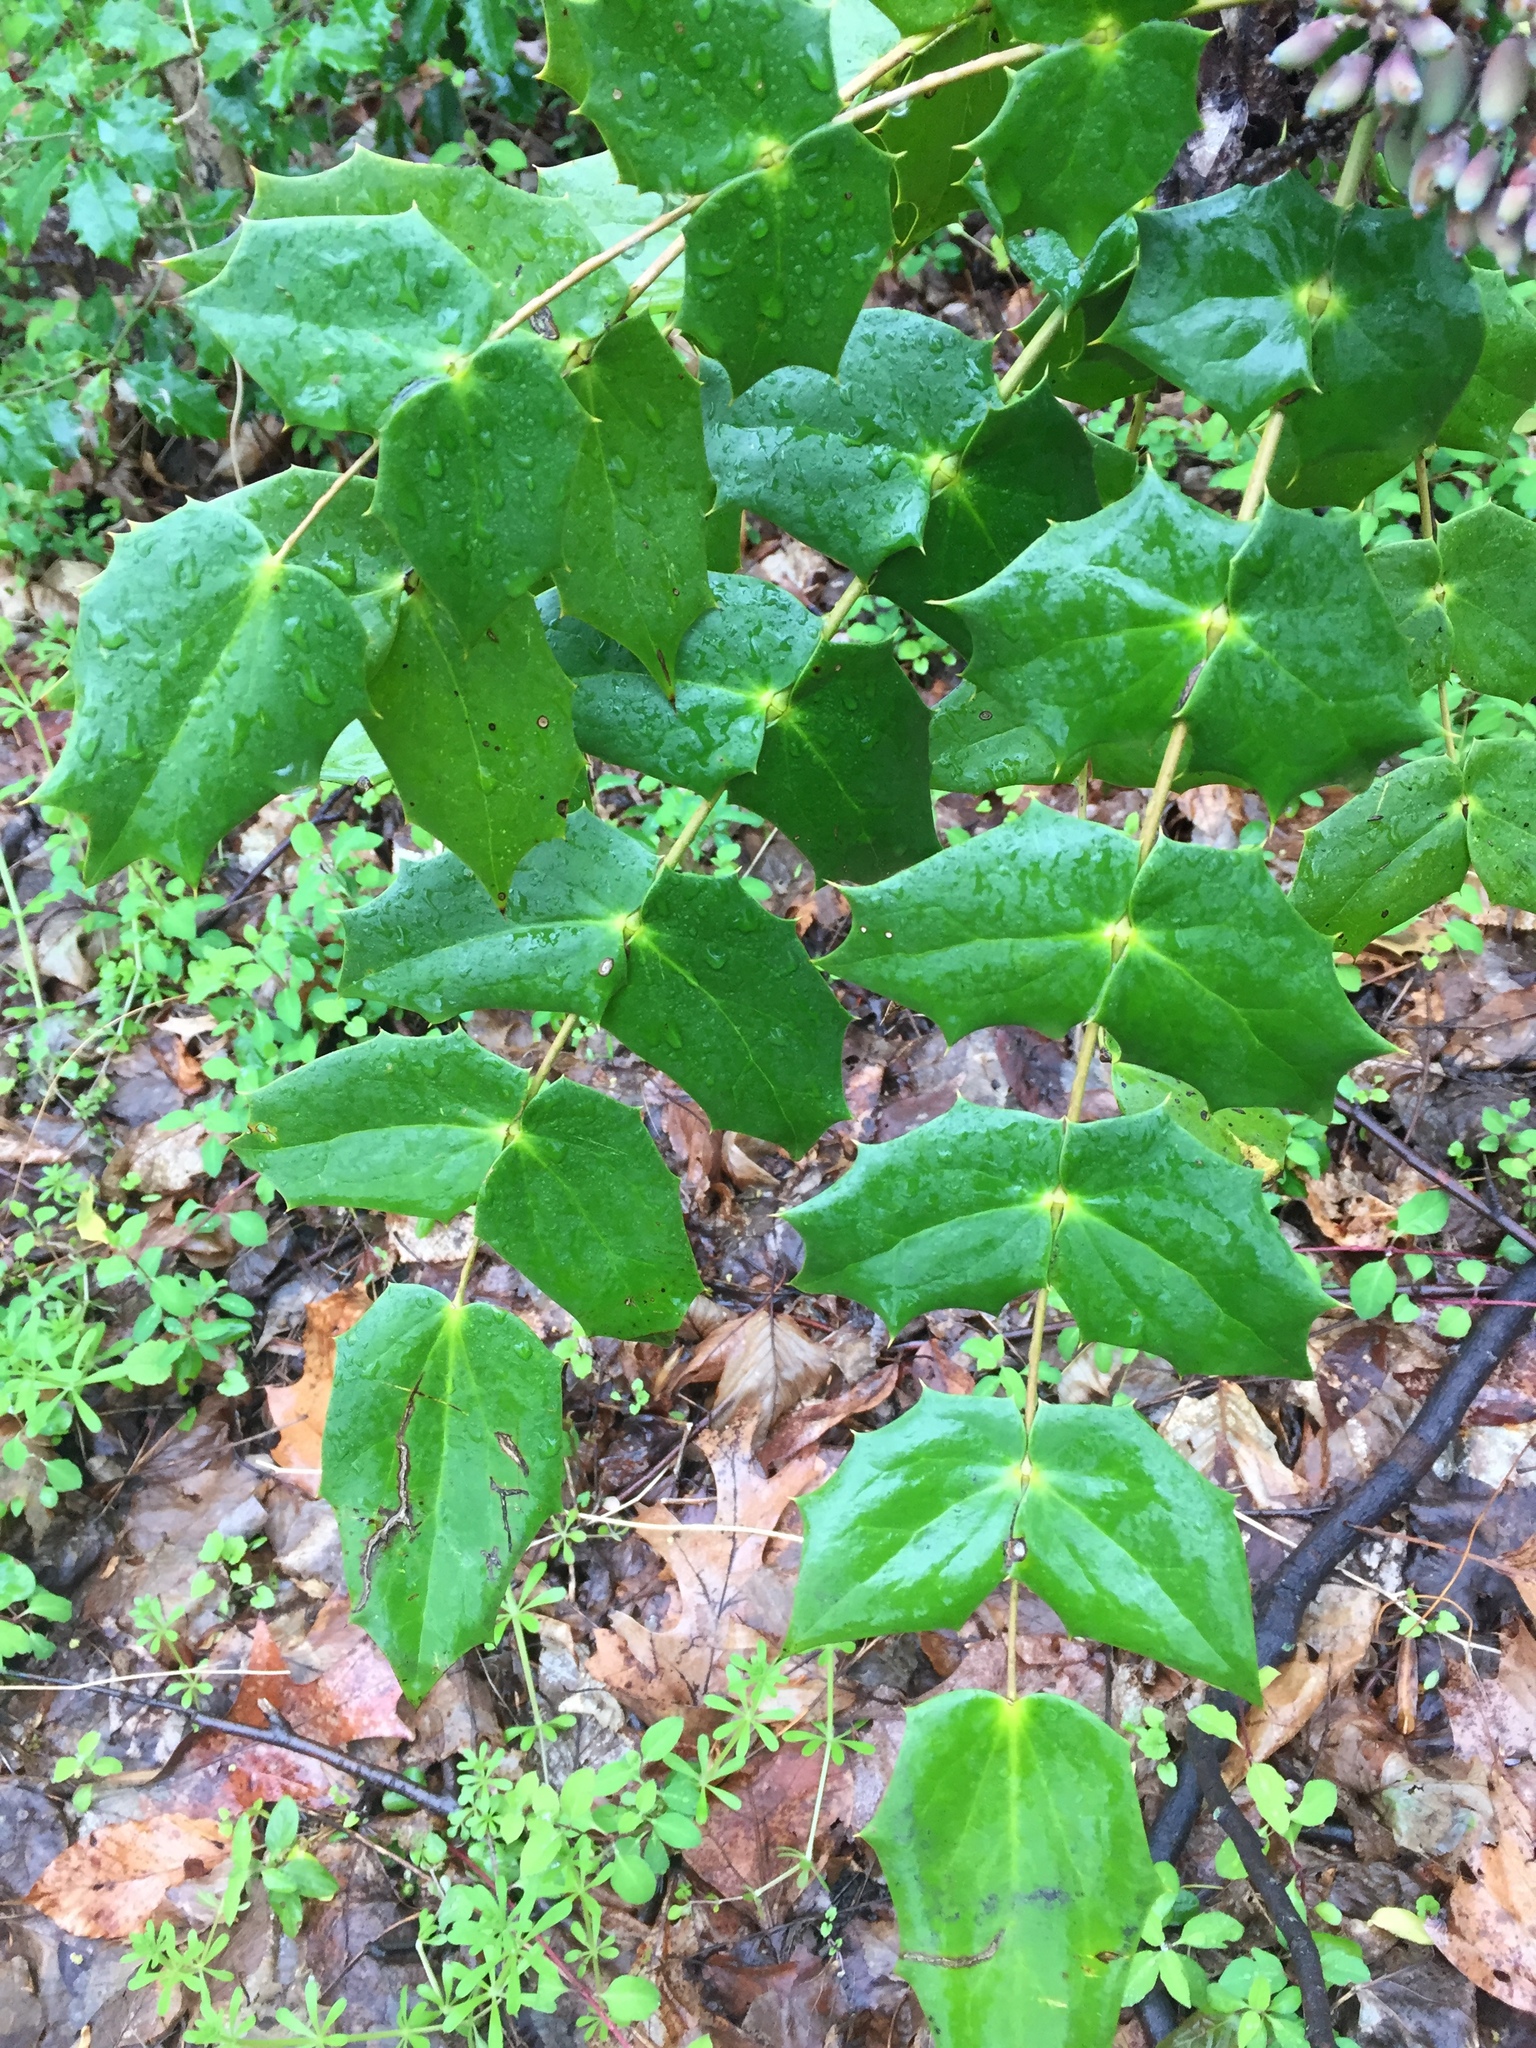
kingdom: Plantae
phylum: Tracheophyta
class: Magnoliopsida
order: Ranunculales
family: Berberidaceae
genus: Mahonia
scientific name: Mahonia bealei
